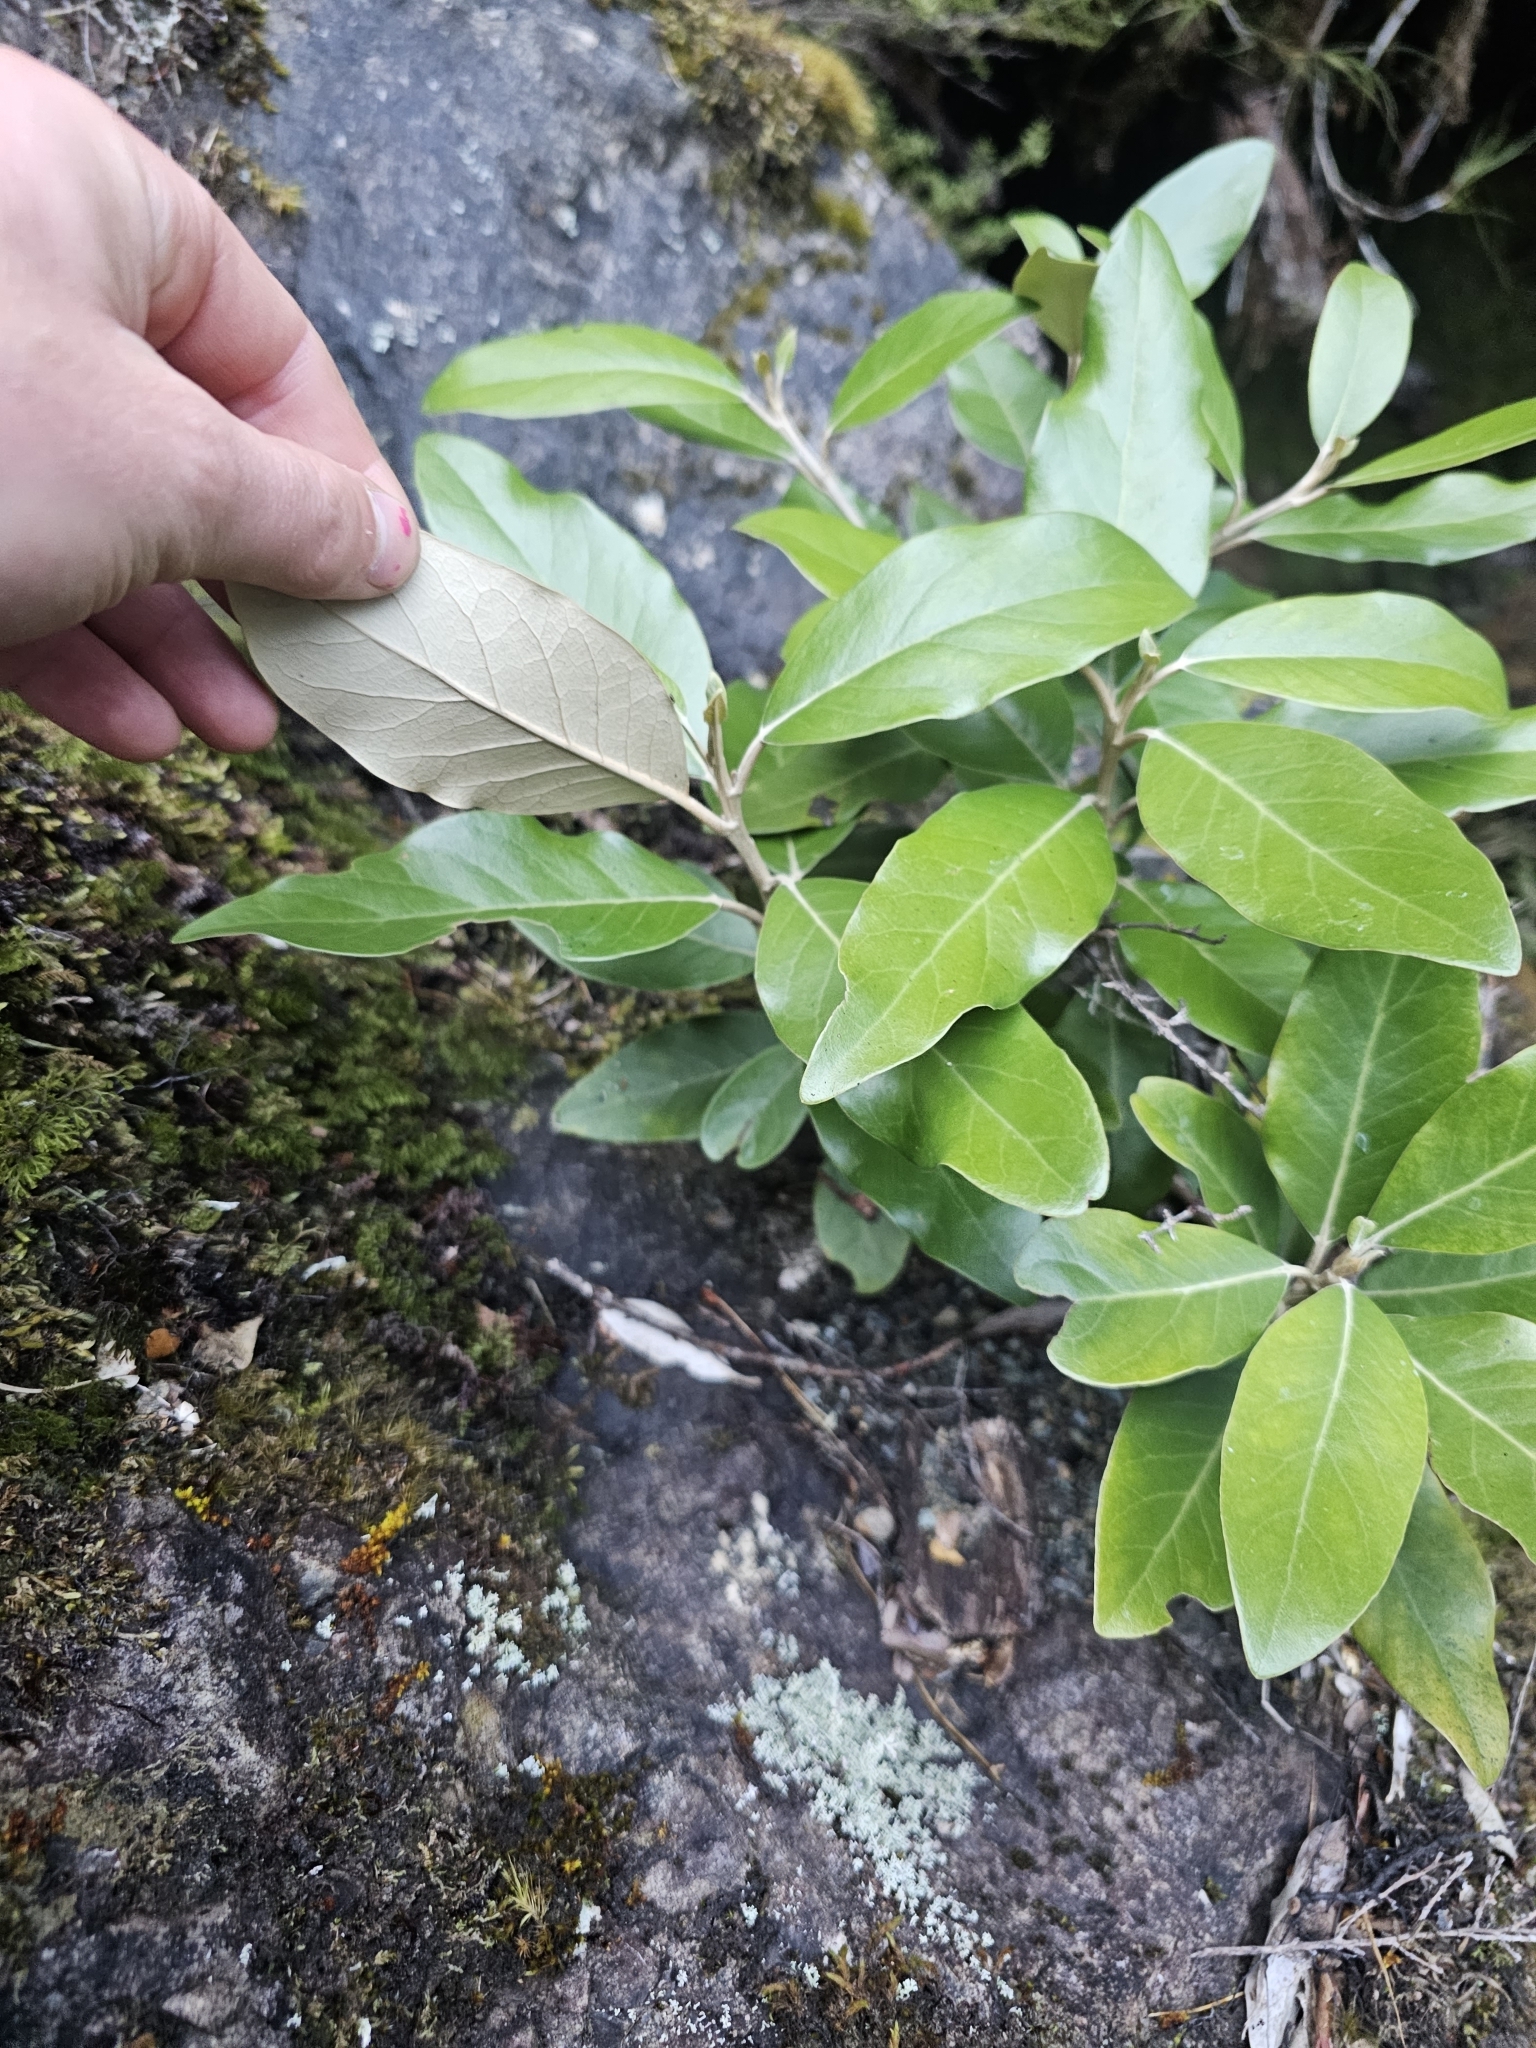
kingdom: Plantae
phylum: Tracheophyta
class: Magnoliopsida
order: Asterales
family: Asteraceae
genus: Olearia
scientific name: Olearia avicenniifolia
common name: Mangrove-leaf daisybush
